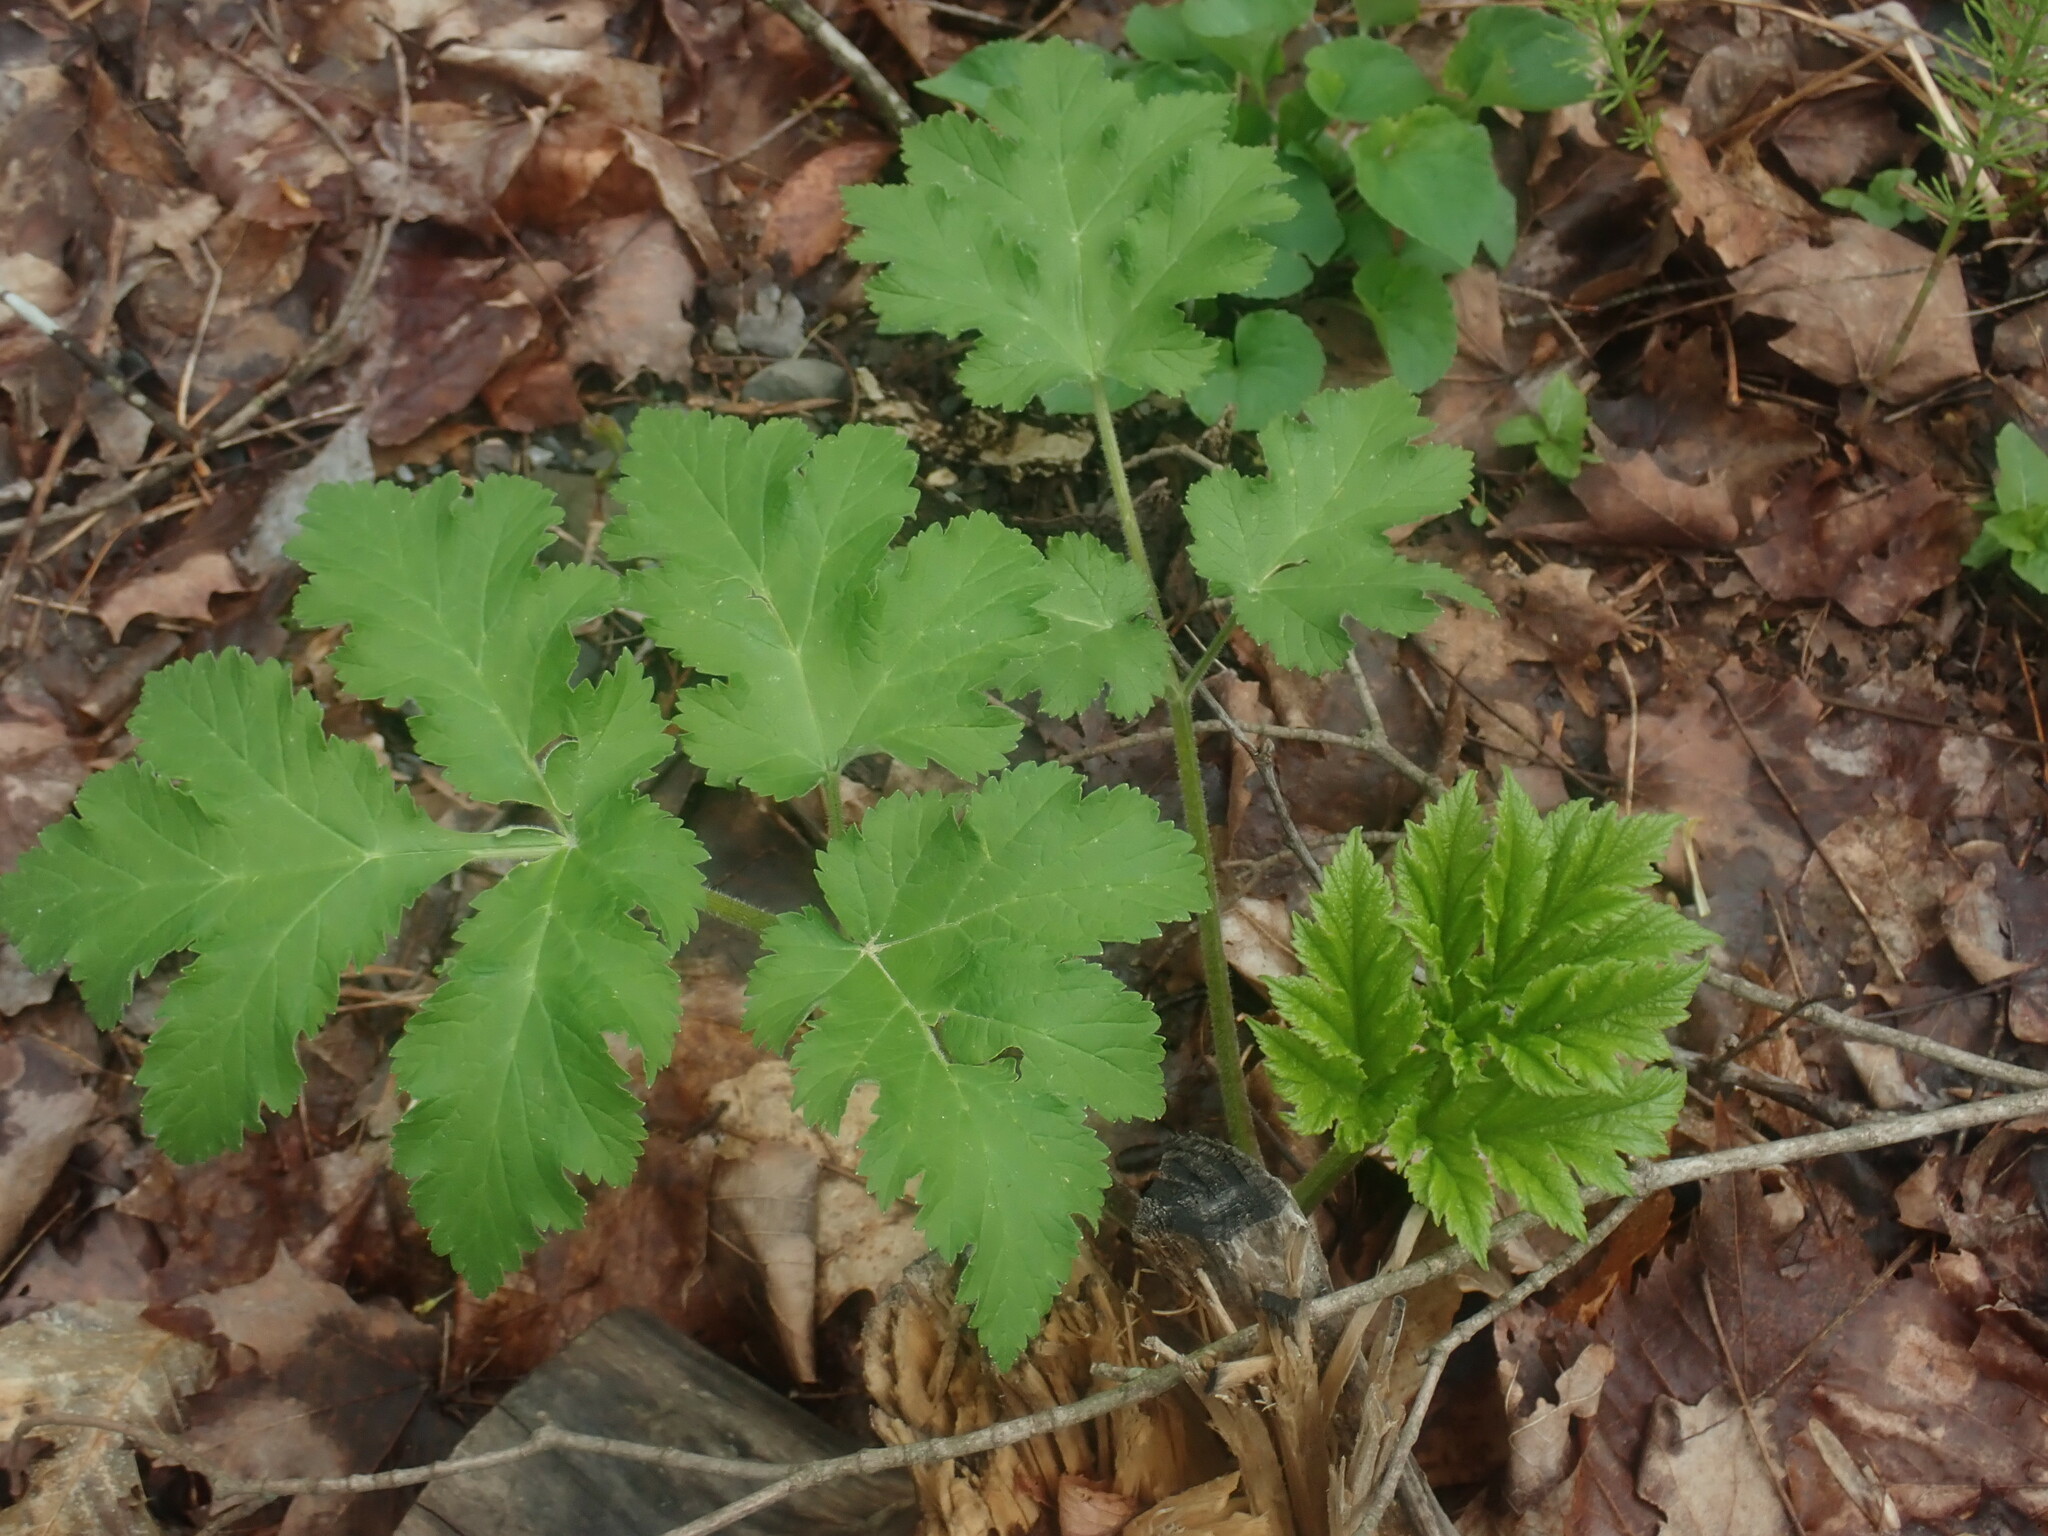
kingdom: Plantae
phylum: Tracheophyta
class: Magnoliopsida
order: Apiales
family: Apiaceae
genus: Heracleum
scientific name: Heracleum maximum
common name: American cow parsnip
